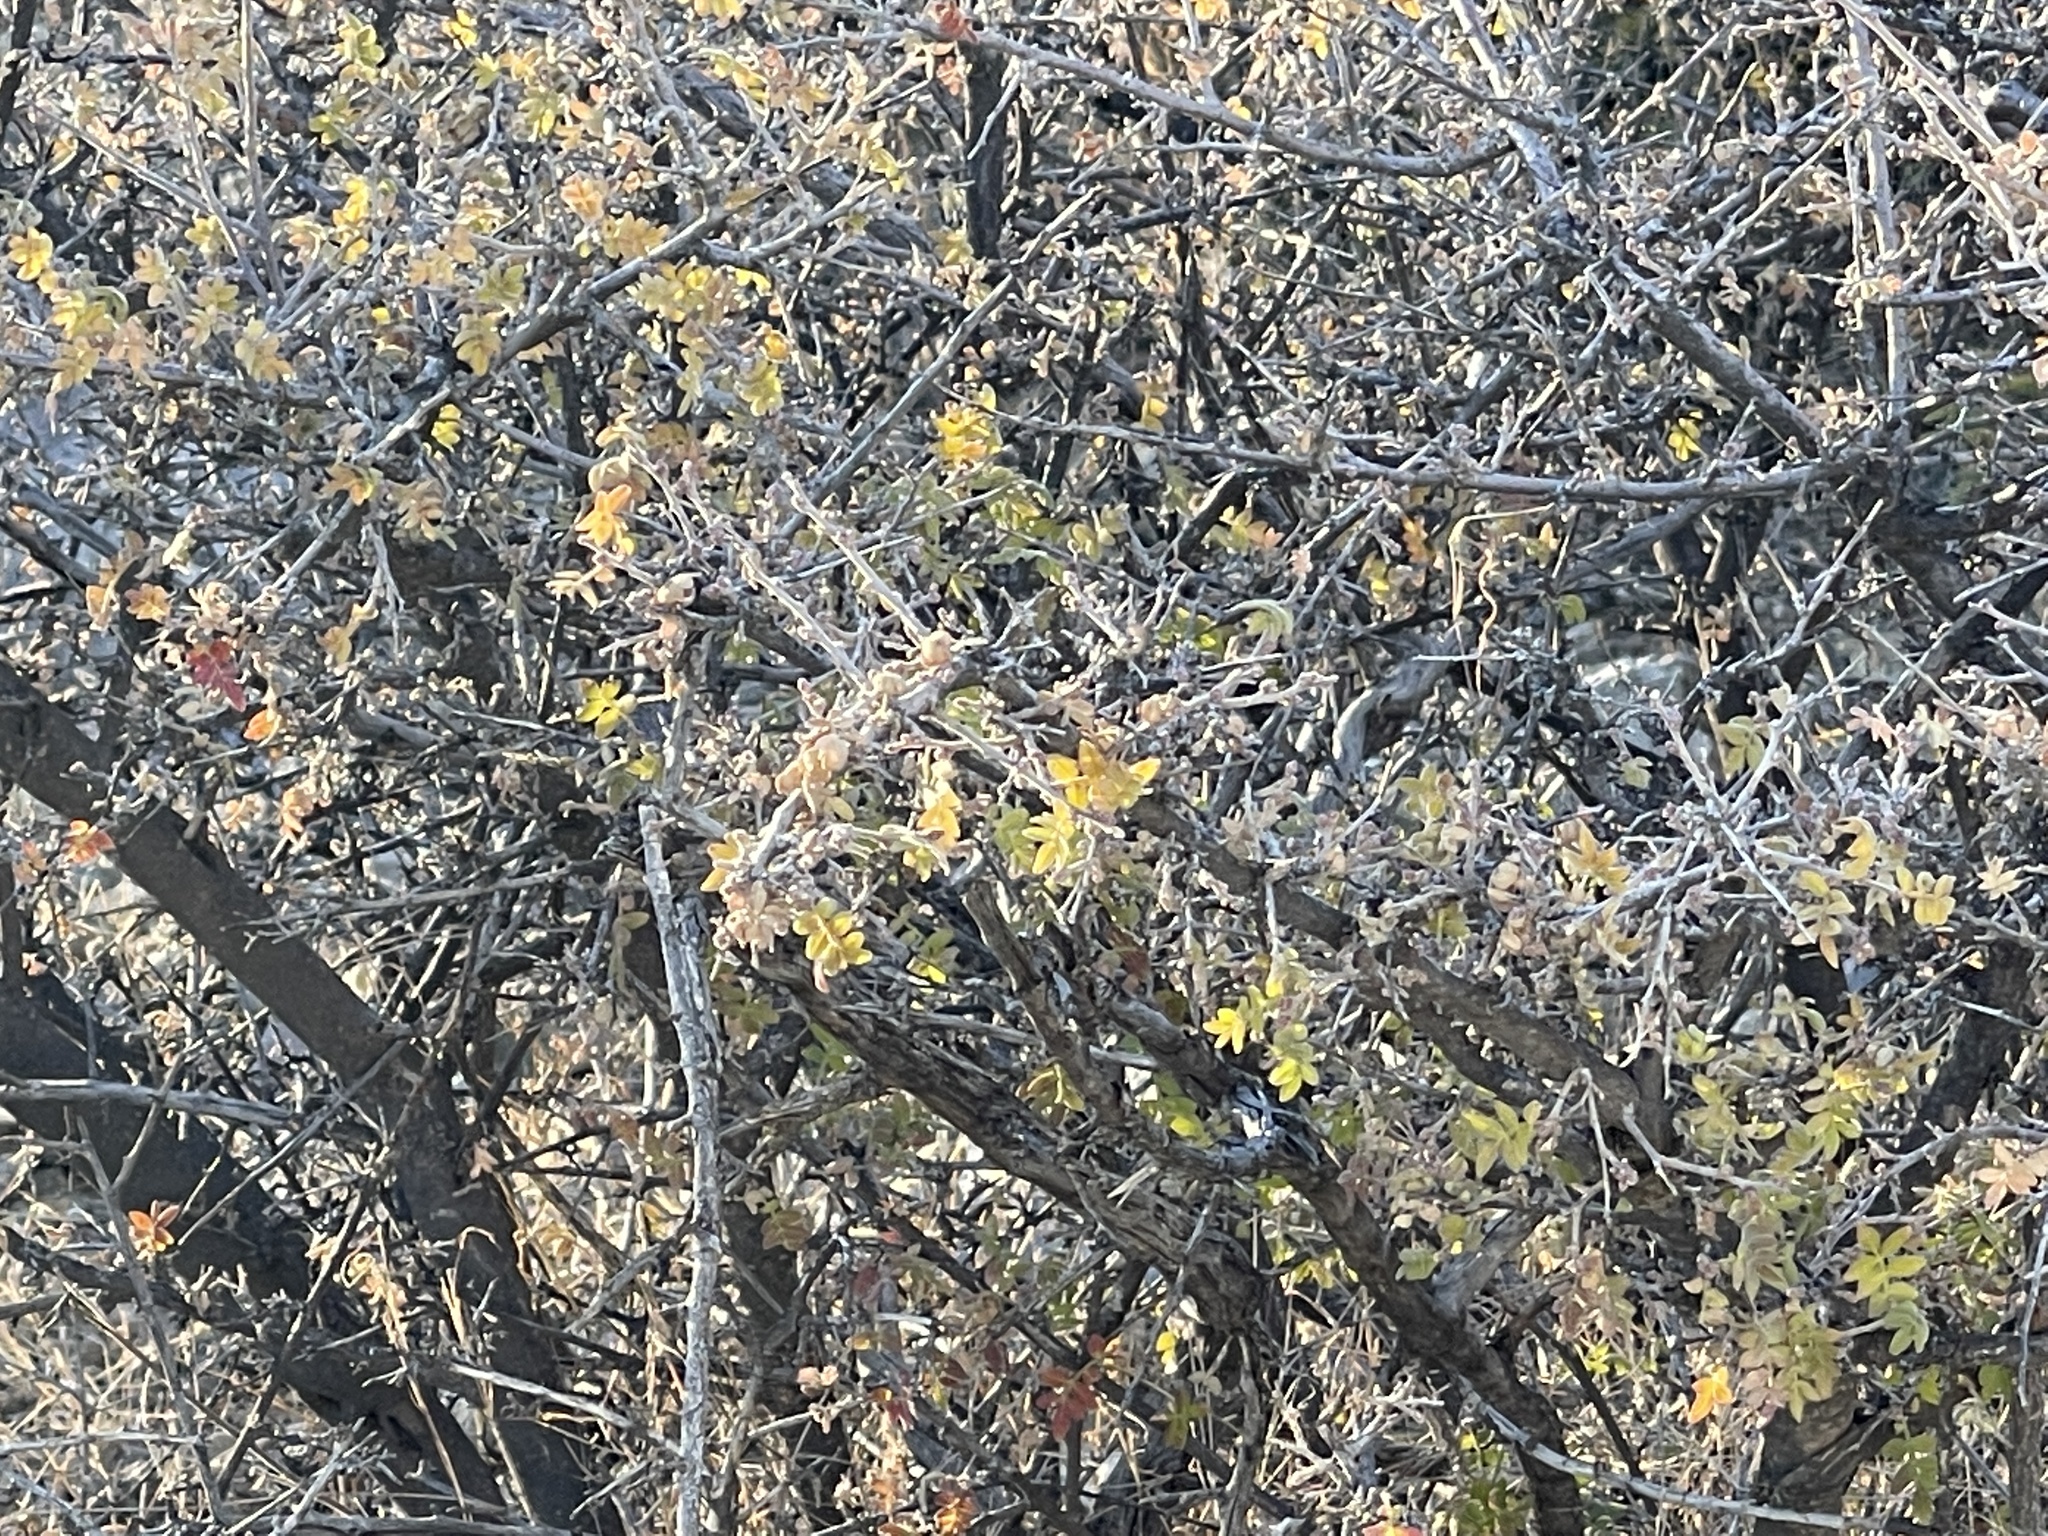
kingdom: Plantae
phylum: Tracheophyta
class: Magnoliopsida
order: Sapindales
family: Anacardiaceae
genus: Rhus
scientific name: Rhus microphylla
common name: Desert sumac
